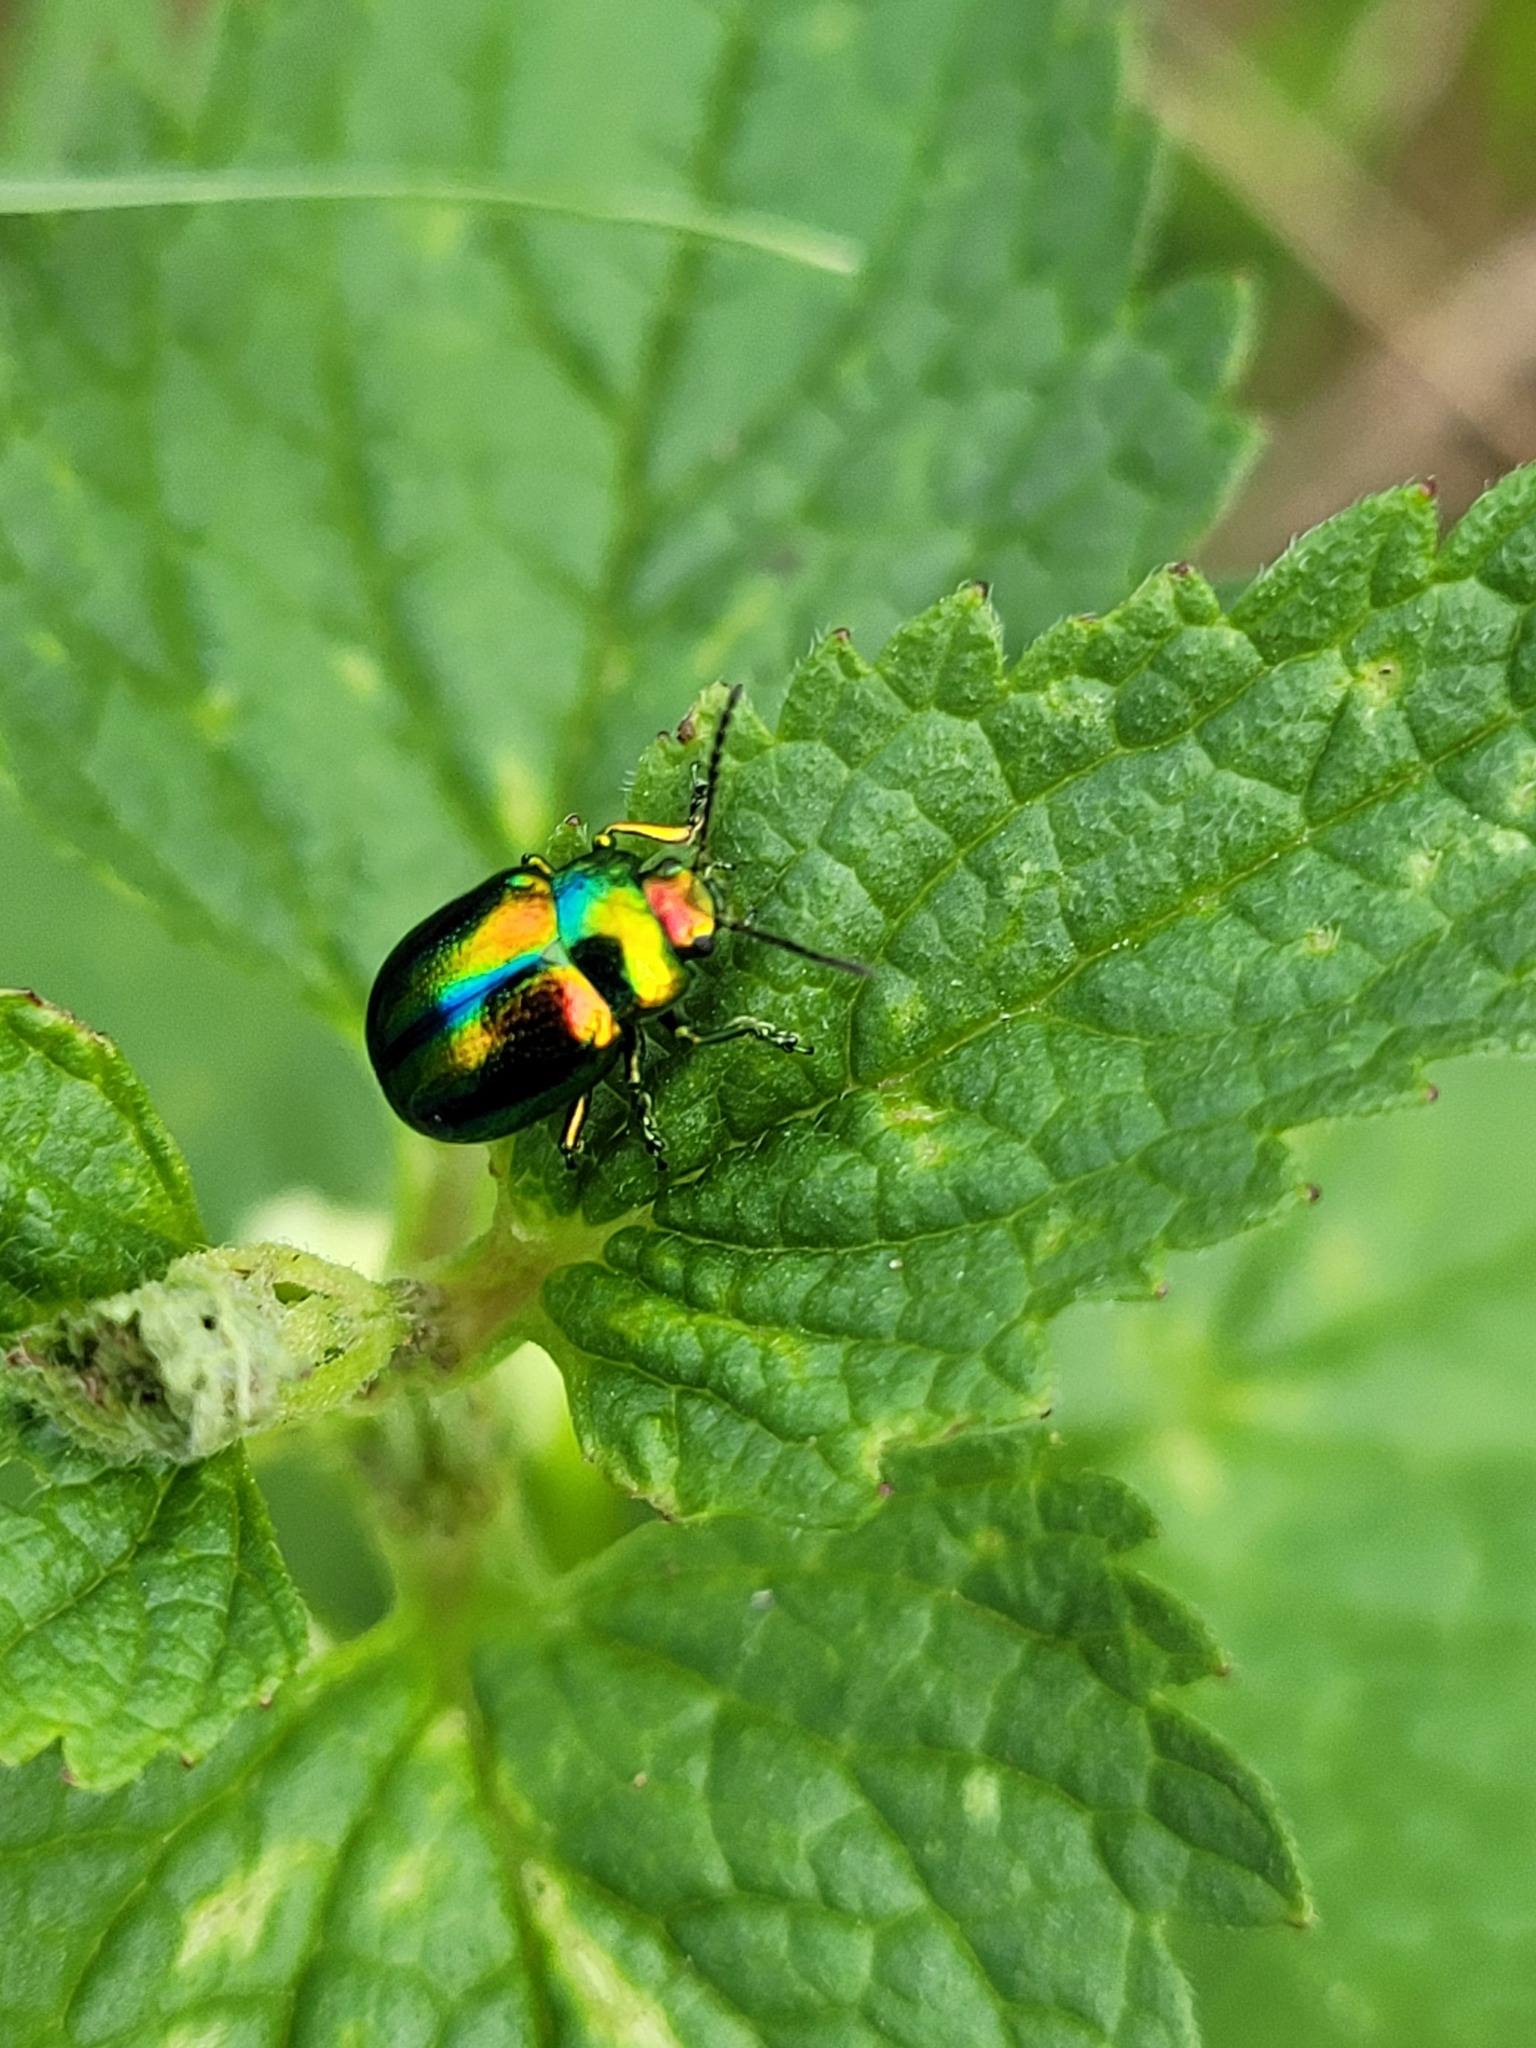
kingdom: Animalia
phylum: Arthropoda
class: Insecta
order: Coleoptera
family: Chrysomelidae
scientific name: Chrysomelidae
